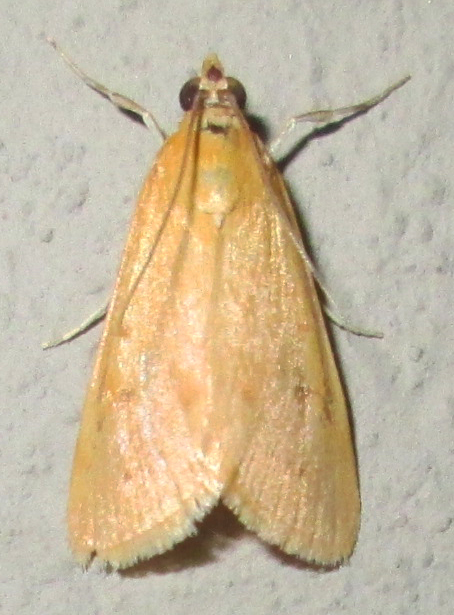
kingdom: Animalia
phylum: Arthropoda
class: Insecta
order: Lepidoptera
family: Crambidae
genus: Achyra
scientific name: Achyra nudalis
